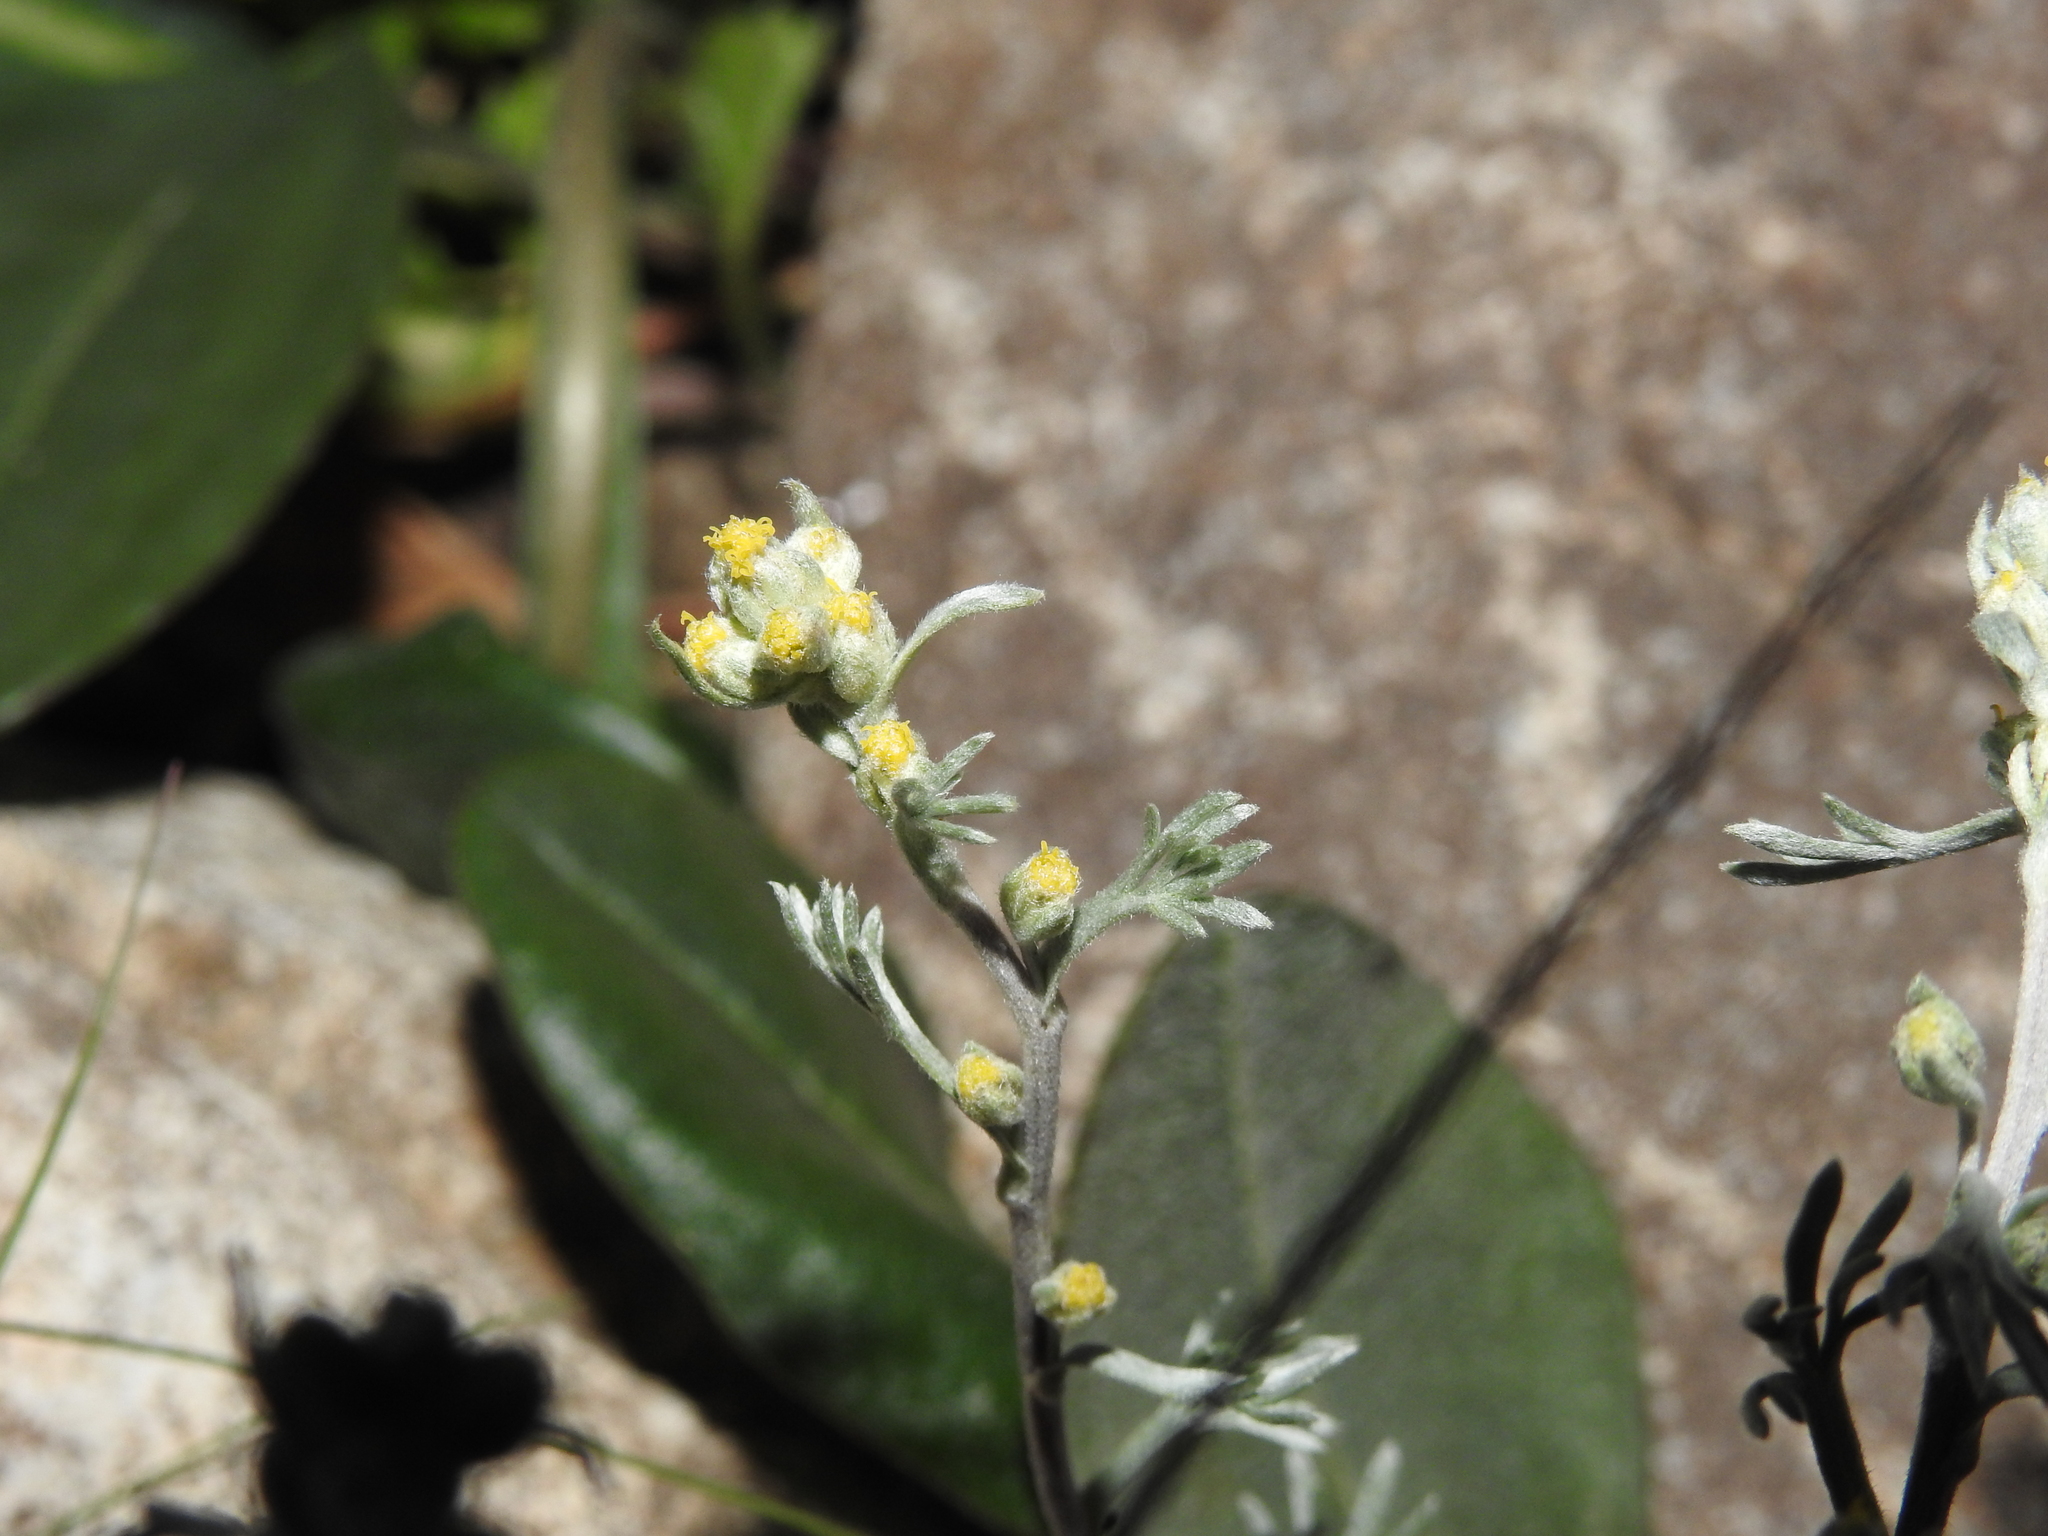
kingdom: Plantae
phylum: Tracheophyta
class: Magnoliopsida
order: Asterales
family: Asteraceae
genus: Artemisia
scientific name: Artemisia umbelliformis
